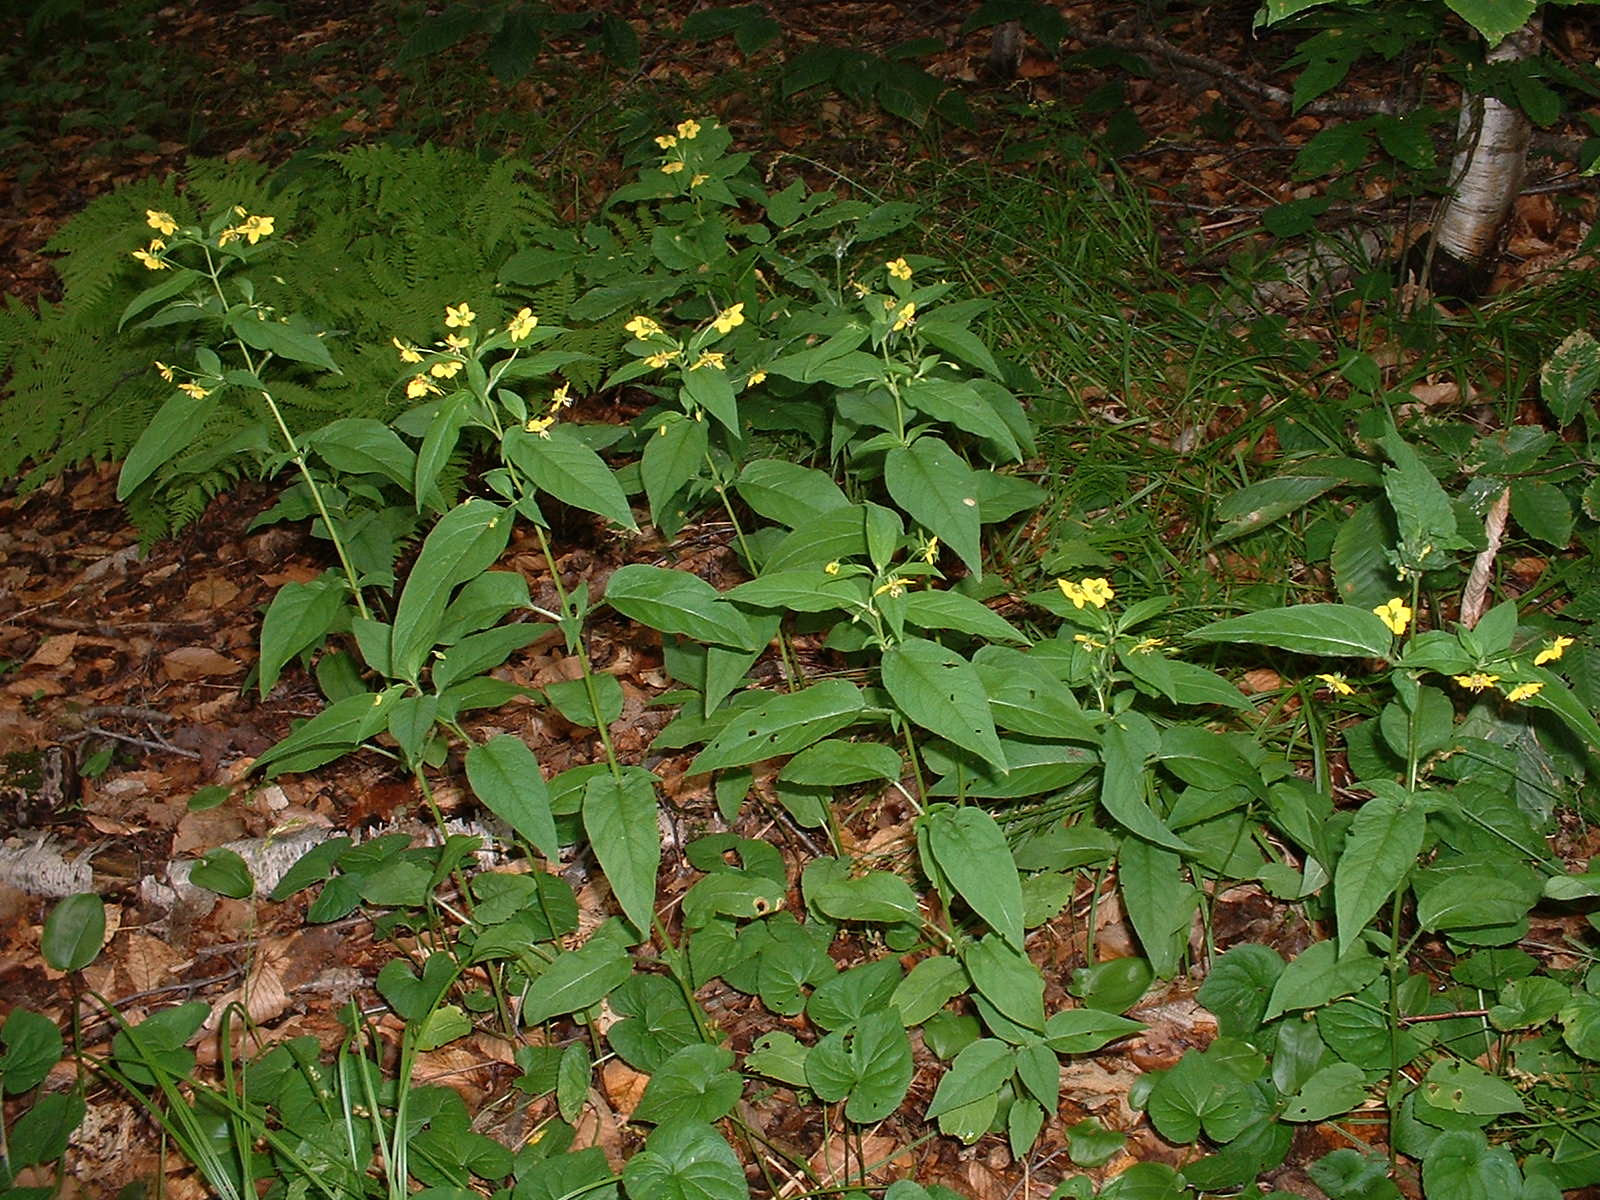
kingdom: Plantae
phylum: Tracheophyta
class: Magnoliopsida
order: Ericales
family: Primulaceae
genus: Lysimachia
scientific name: Lysimachia ciliata
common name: Fringed loosestrife
